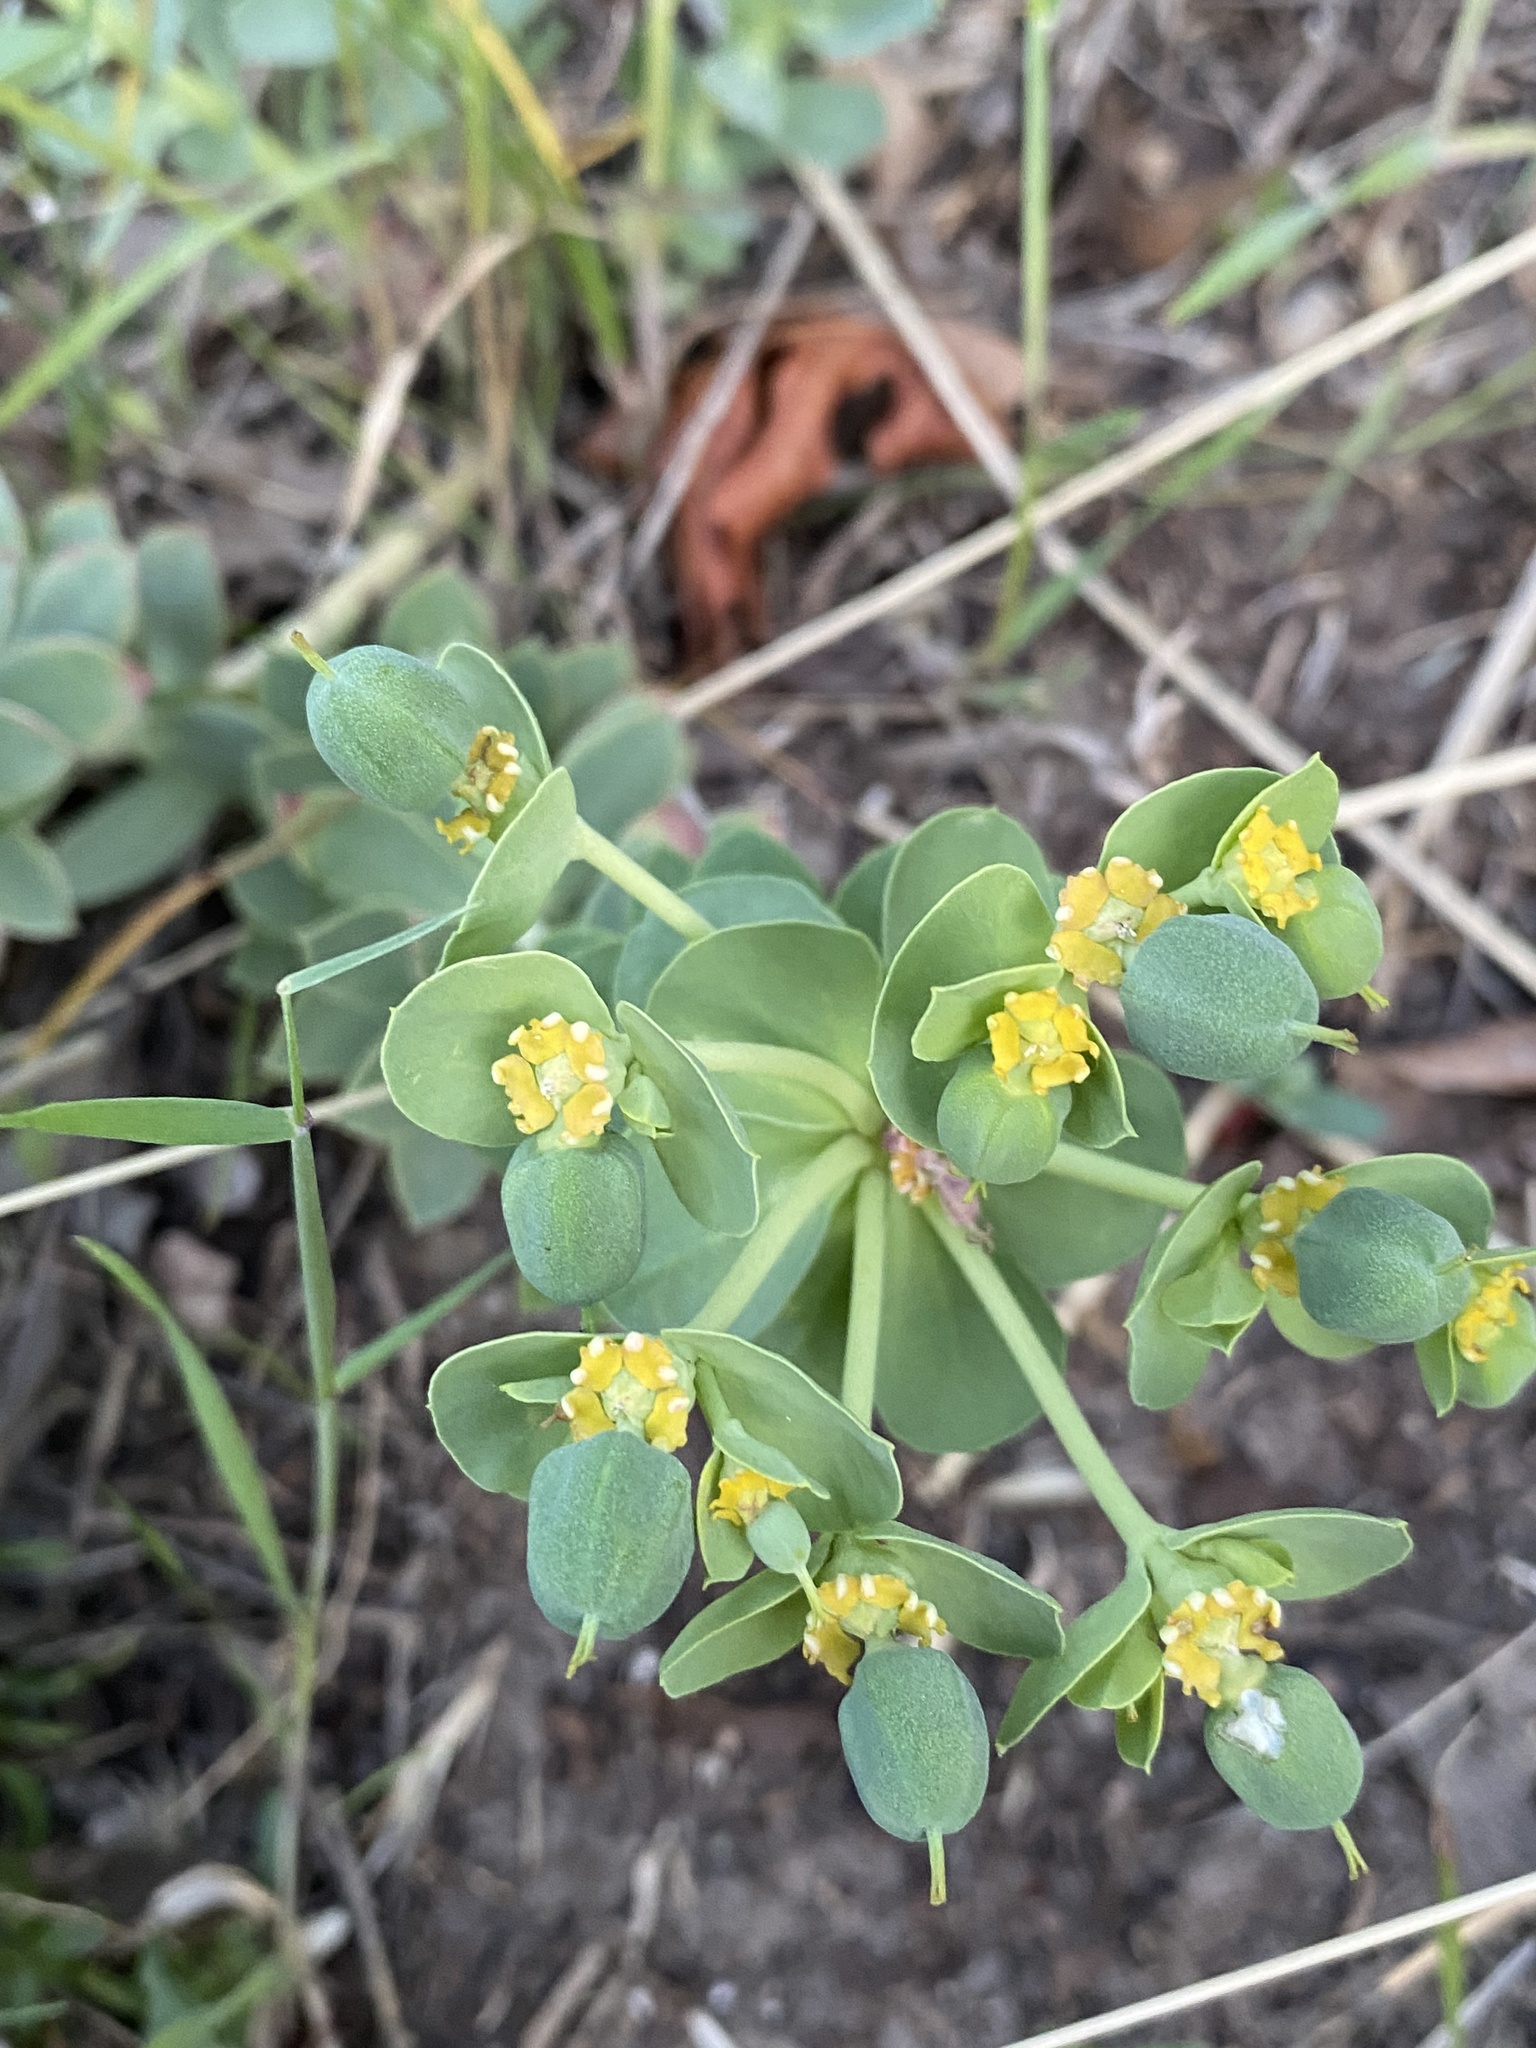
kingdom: Plantae
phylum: Tracheophyta
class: Magnoliopsida
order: Malpighiales
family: Euphorbiaceae
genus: Euphorbia
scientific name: Euphorbia myrsinites
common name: Myrtle spurge
